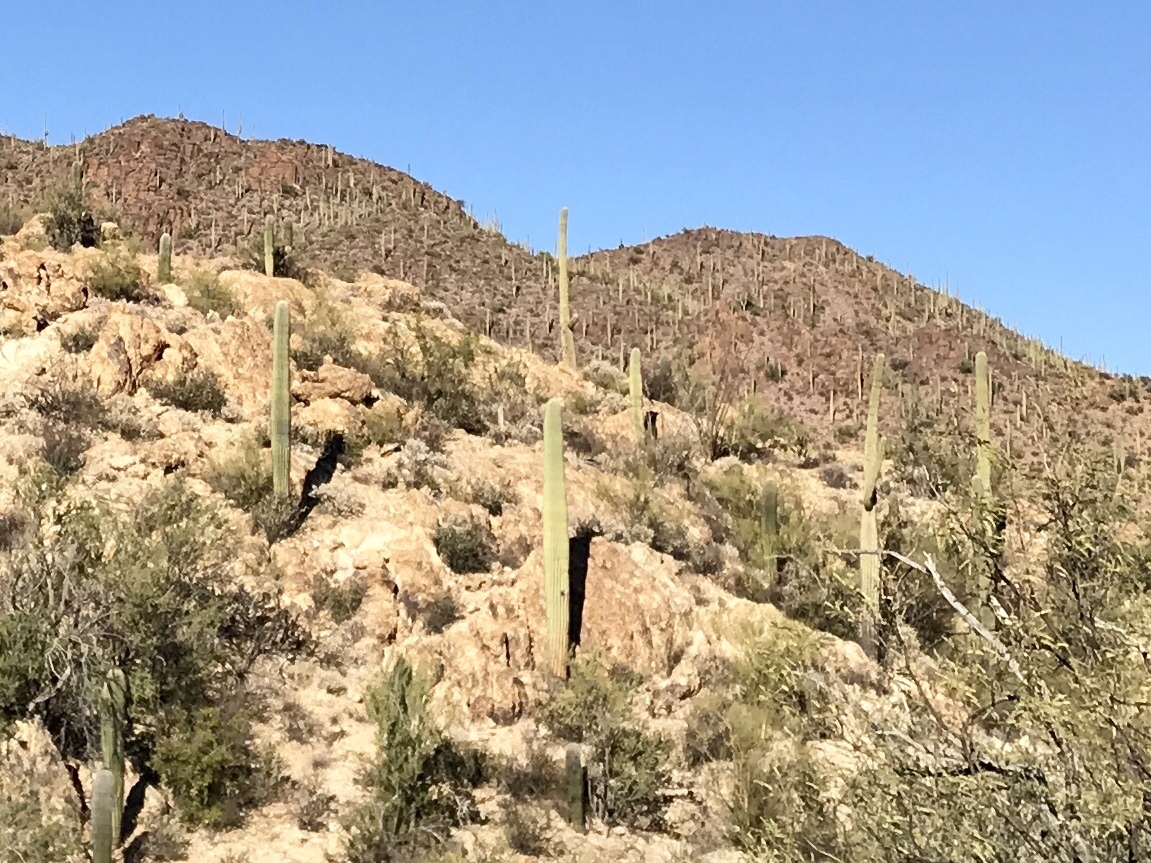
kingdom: Plantae
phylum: Tracheophyta
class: Magnoliopsida
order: Caryophyllales
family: Cactaceae
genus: Carnegiea
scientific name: Carnegiea gigantea
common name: Saguaro
